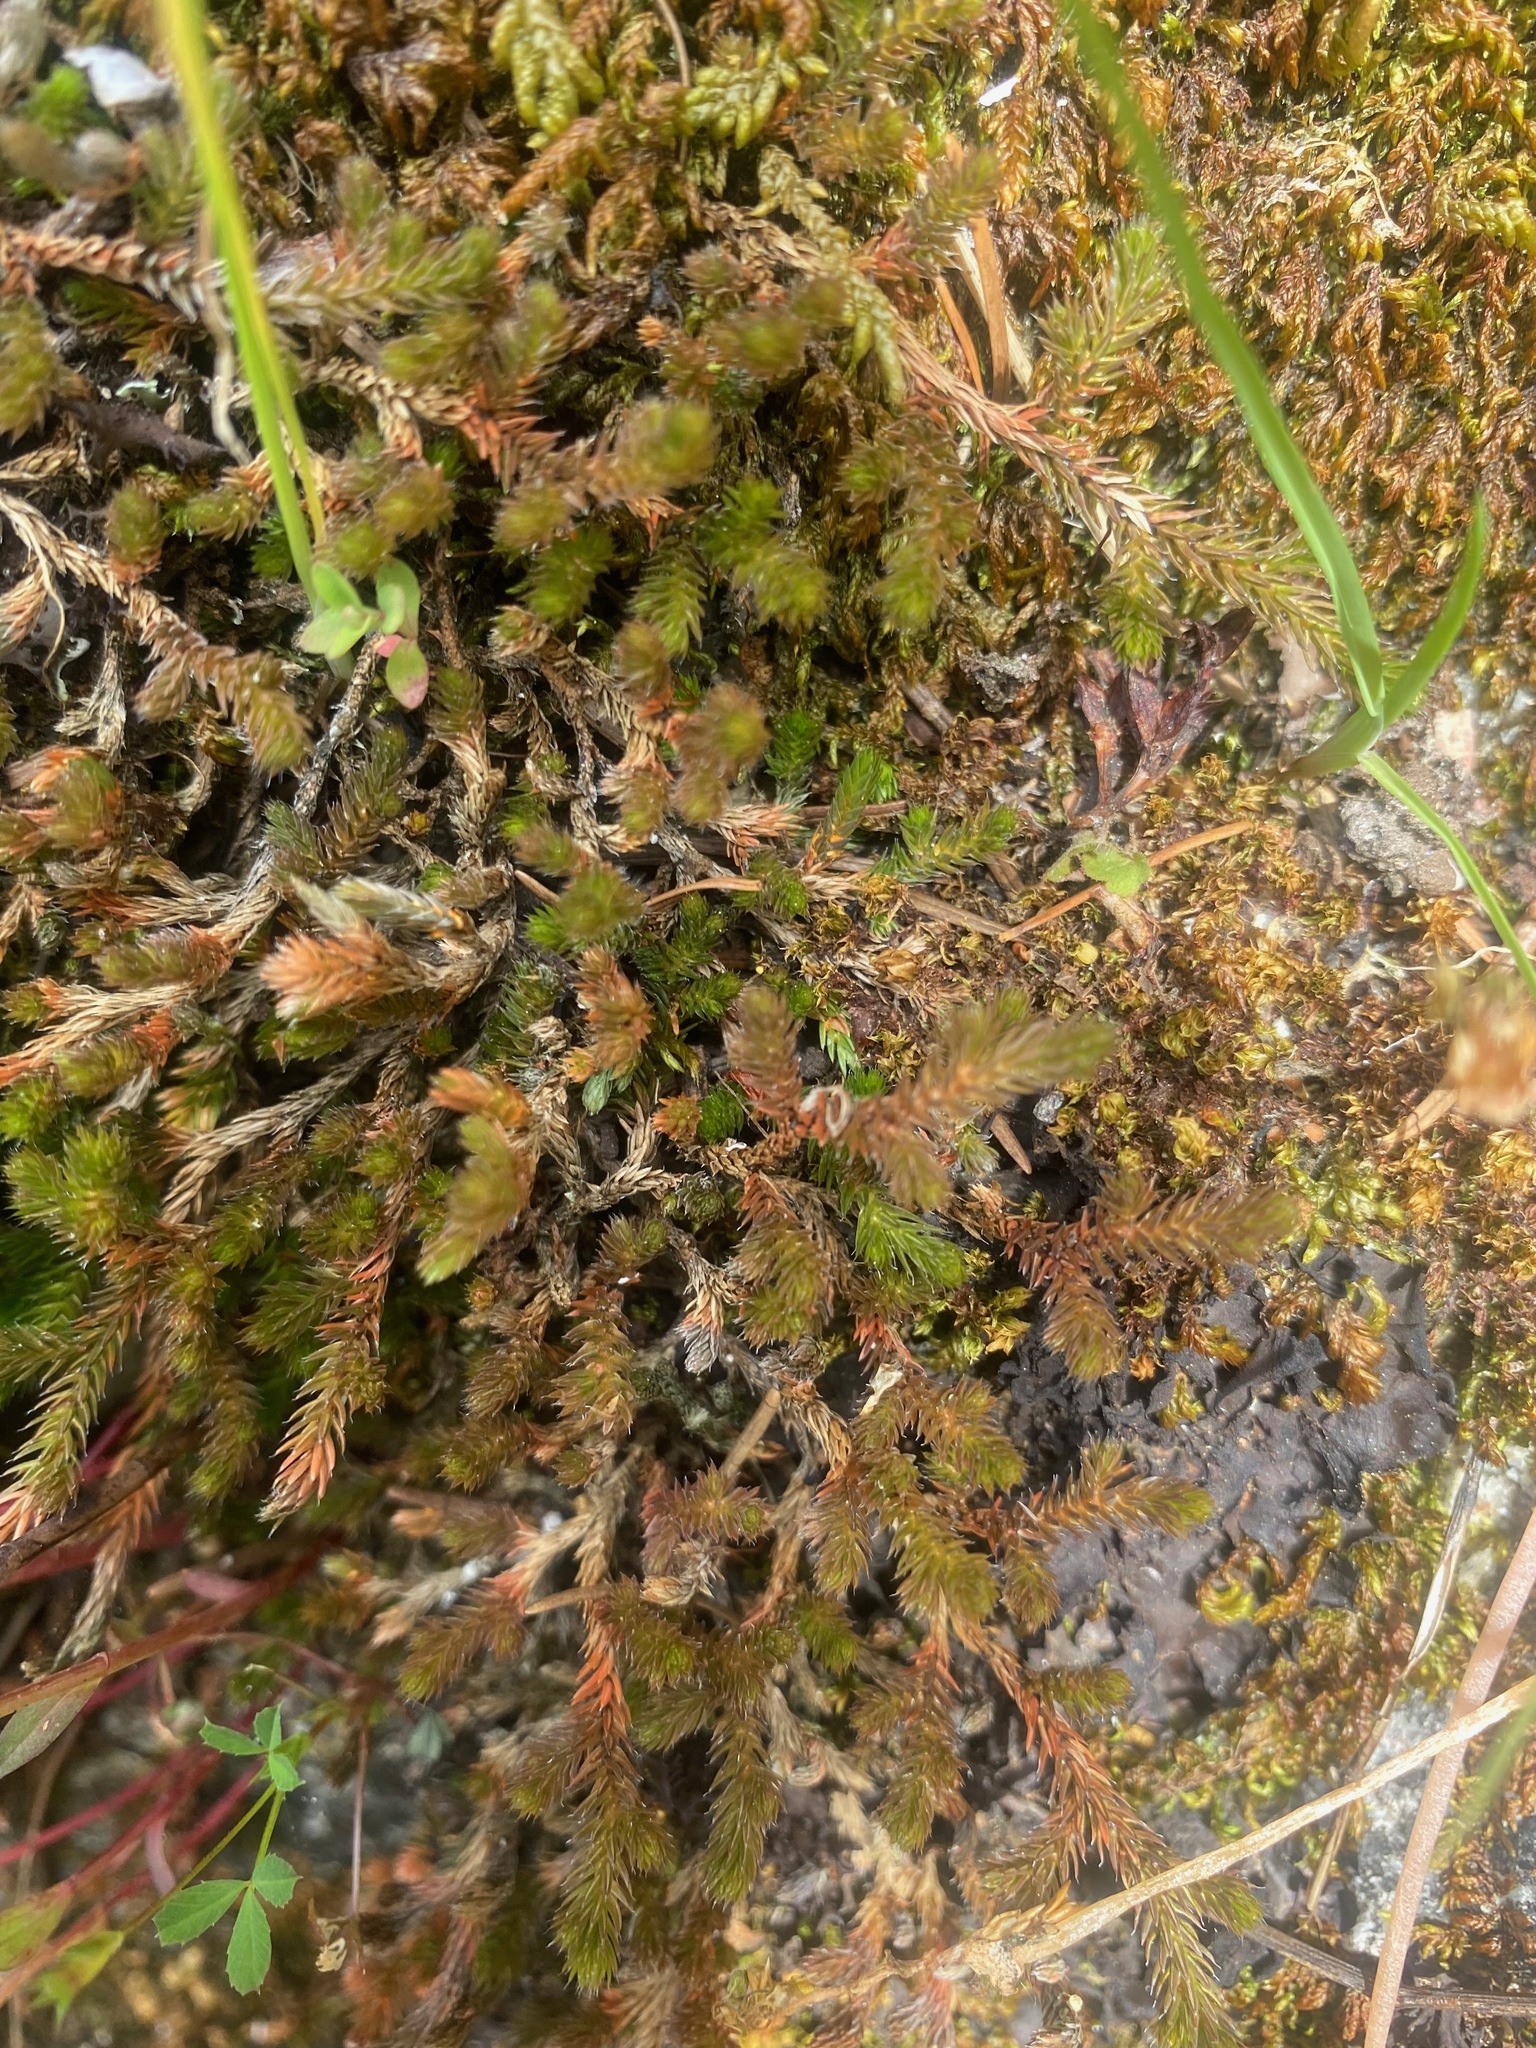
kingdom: Plantae
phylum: Tracheophyta
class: Lycopodiopsida
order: Selaginellales
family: Selaginellaceae
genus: Selaginella
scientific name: Selaginella wallacei
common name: Wallace's selaginella
